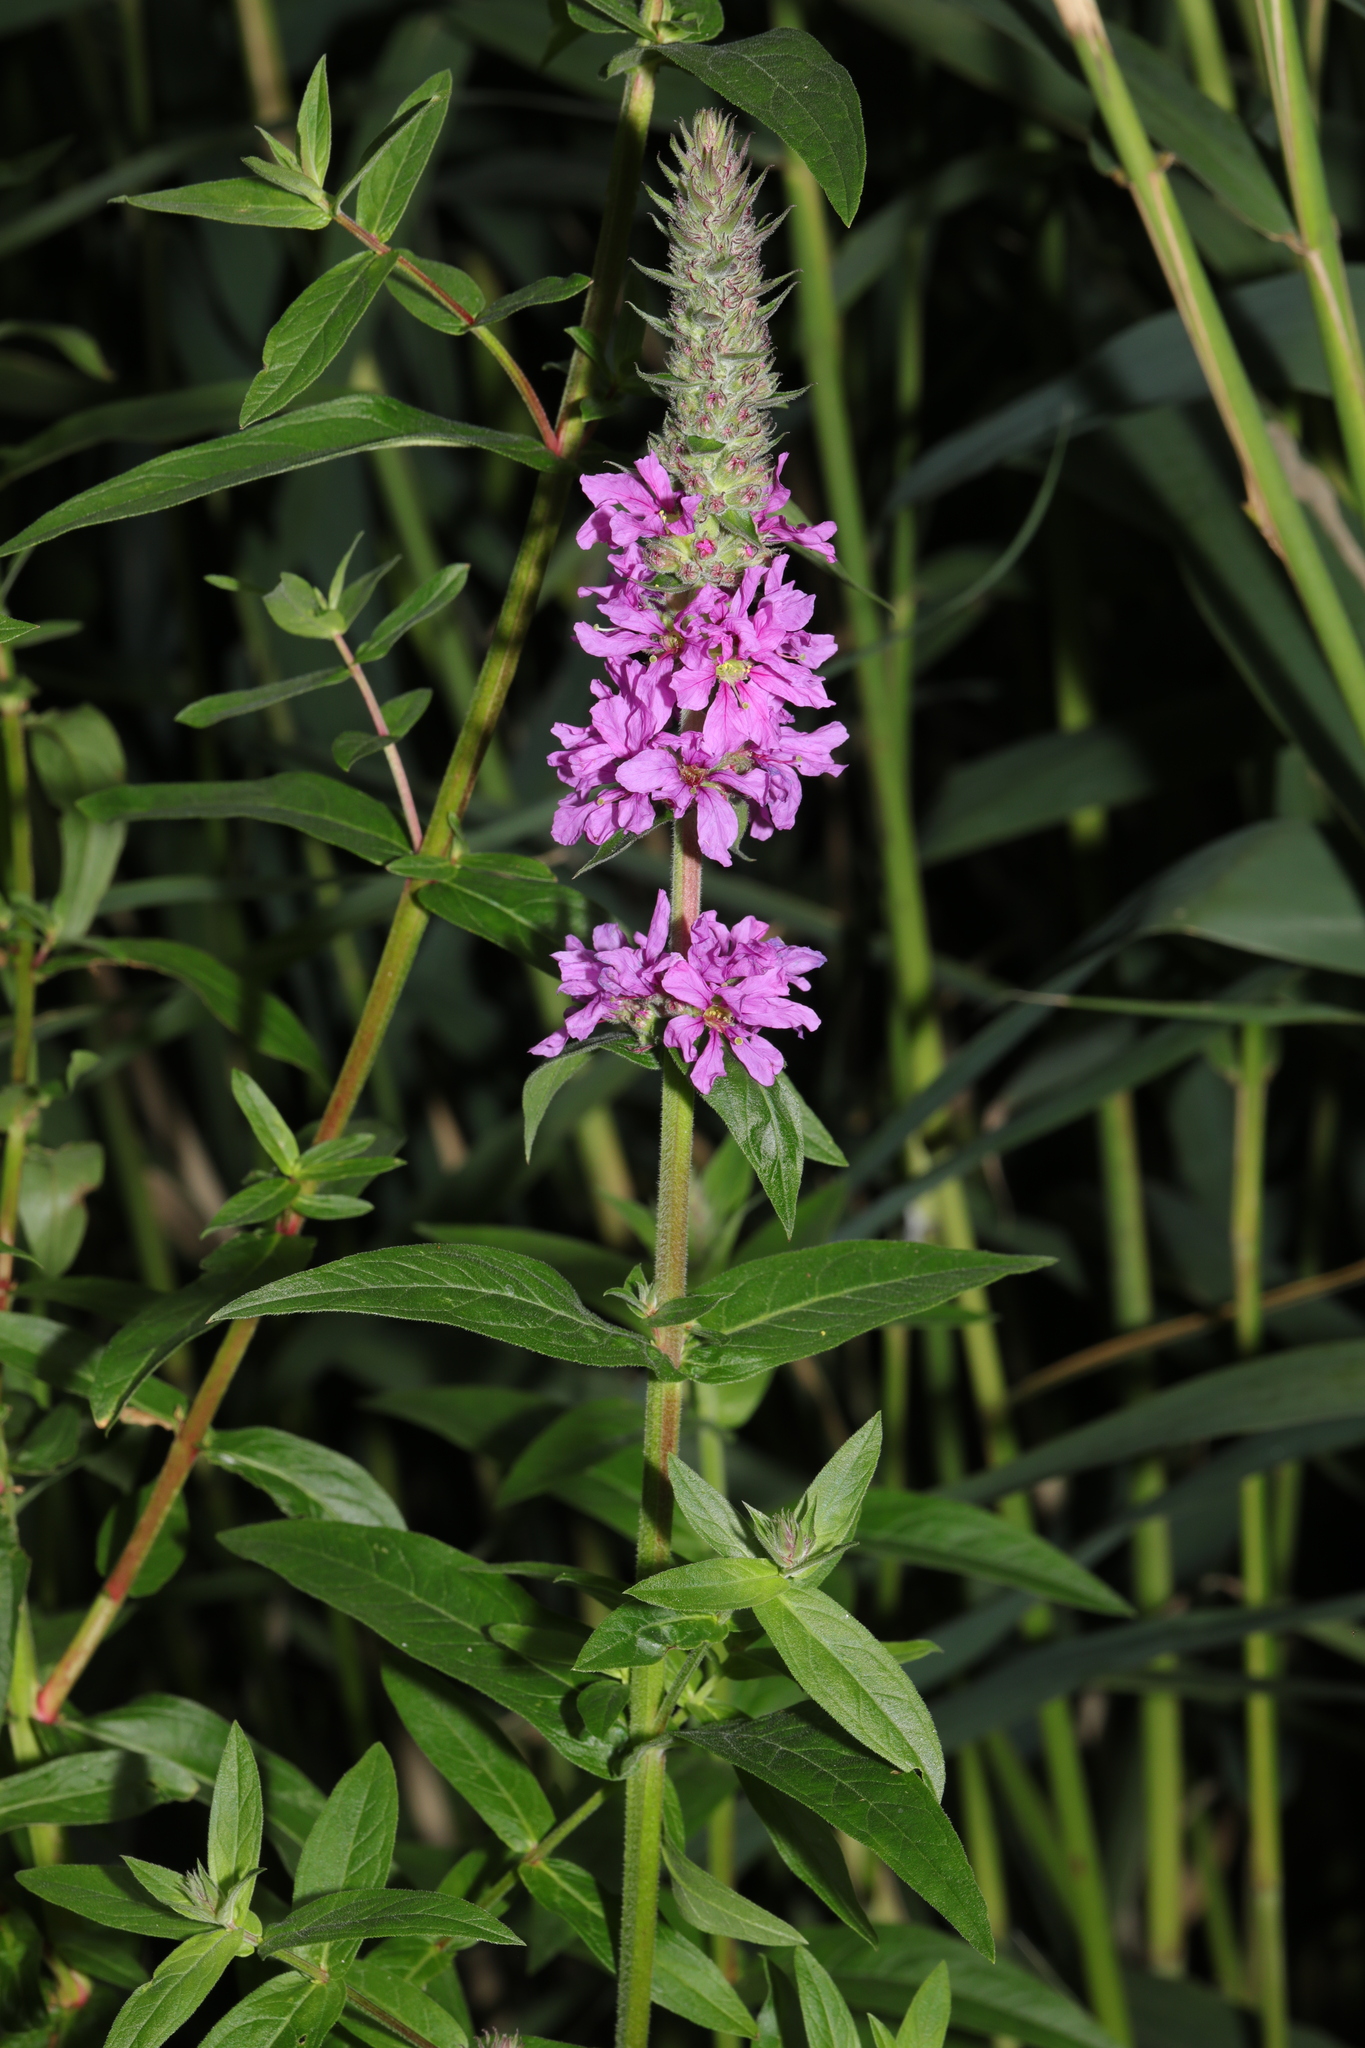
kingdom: Plantae
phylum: Tracheophyta
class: Magnoliopsida
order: Myrtales
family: Lythraceae
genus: Lythrum
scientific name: Lythrum salicaria
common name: Purple loosestrife
